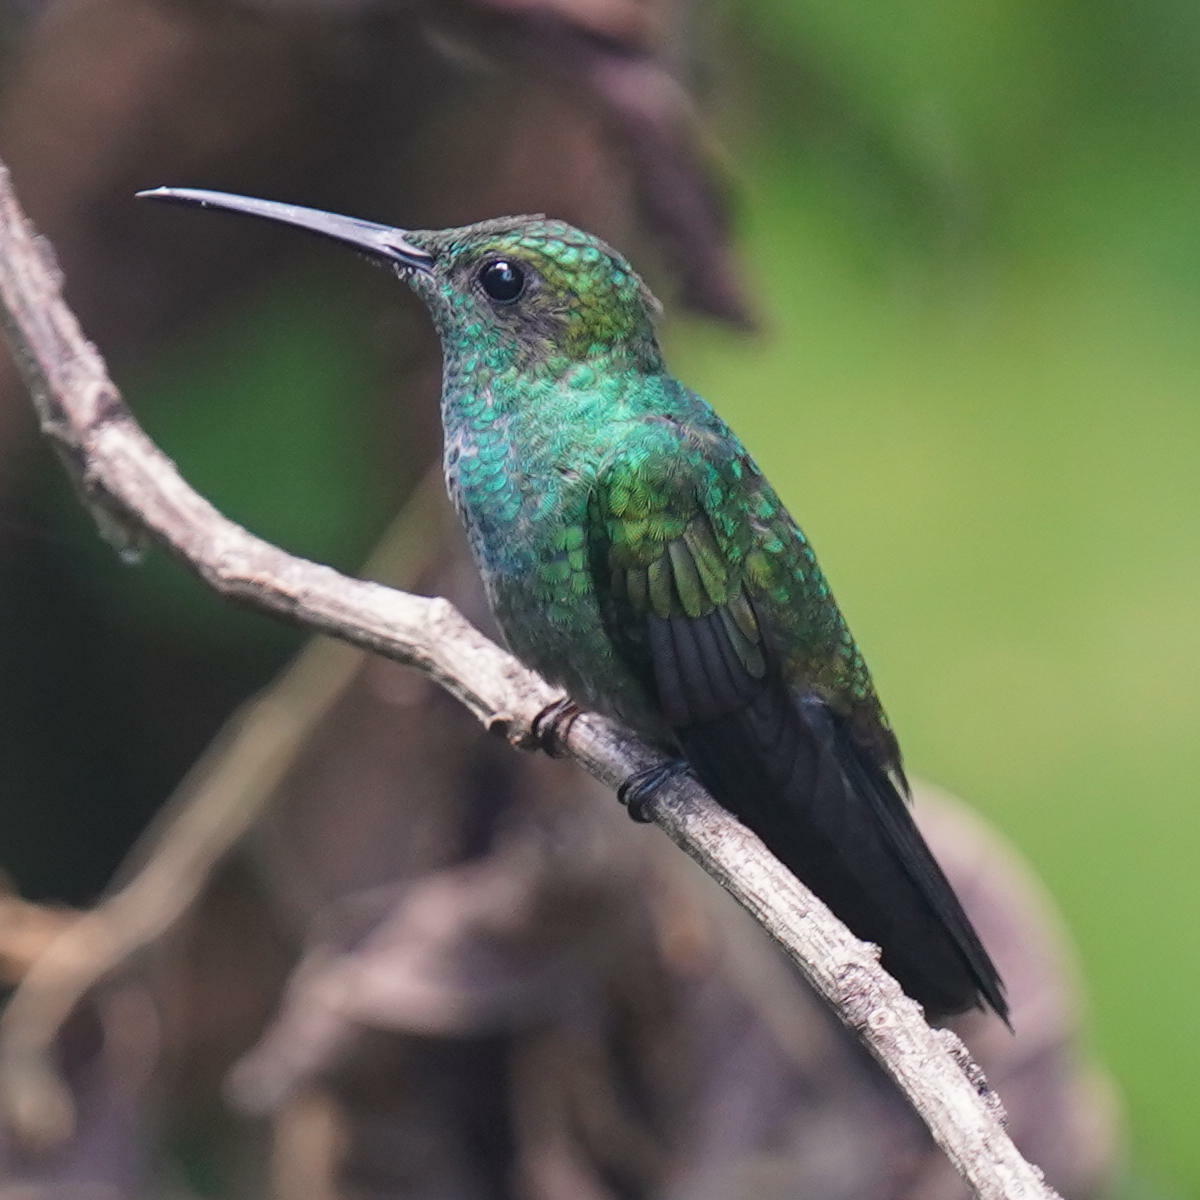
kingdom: Animalia
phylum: Chordata
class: Aves
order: Apodiformes
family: Trochilidae
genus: Chalybura
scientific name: Chalybura buffonii
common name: White-vented plumeleteer
